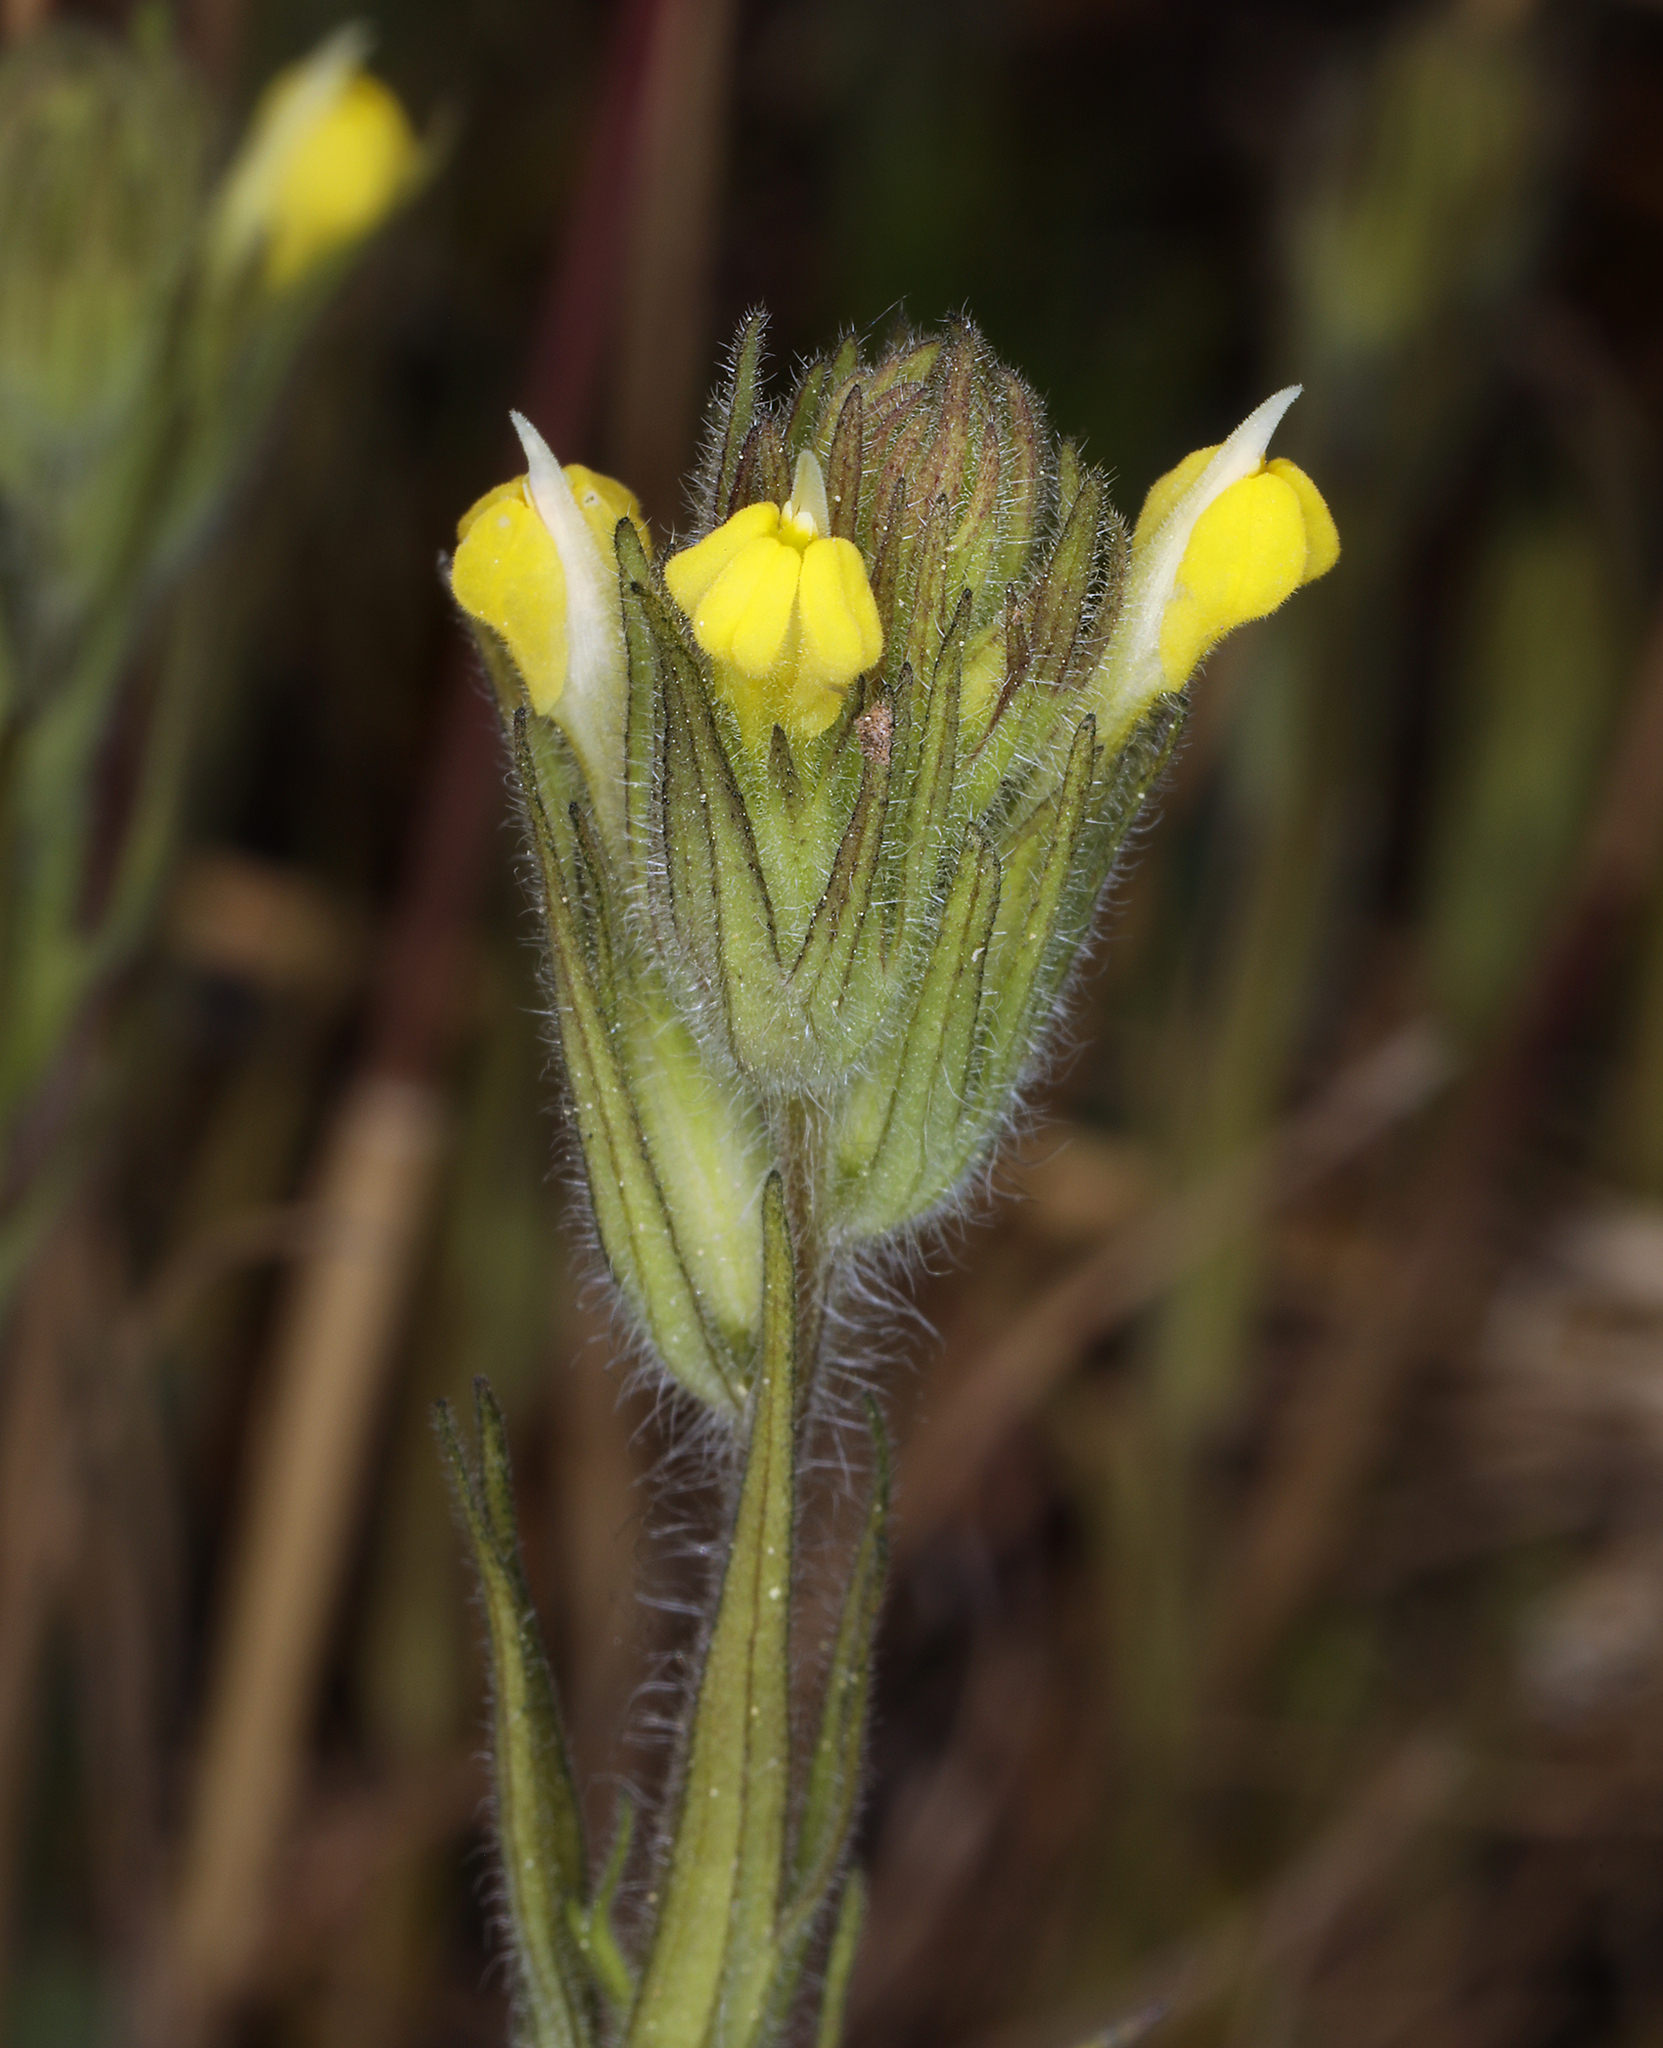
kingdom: Plantae
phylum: Tracheophyta
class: Magnoliopsida
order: Lamiales
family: Orobanchaceae
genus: Castilleja
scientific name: Castilleja tenuis
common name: Hairy indian paintbrush
